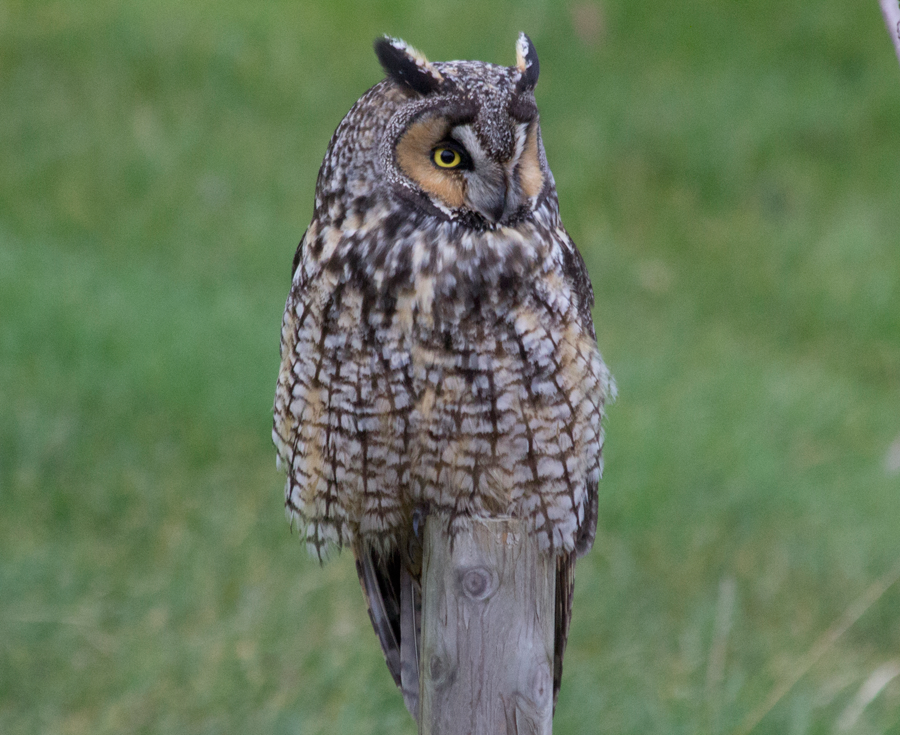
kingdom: Animalia
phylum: Chordata
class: Aves
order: Strigiformes
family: Strigidae
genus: Asio
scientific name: Asio otus
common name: Long-eared owl
